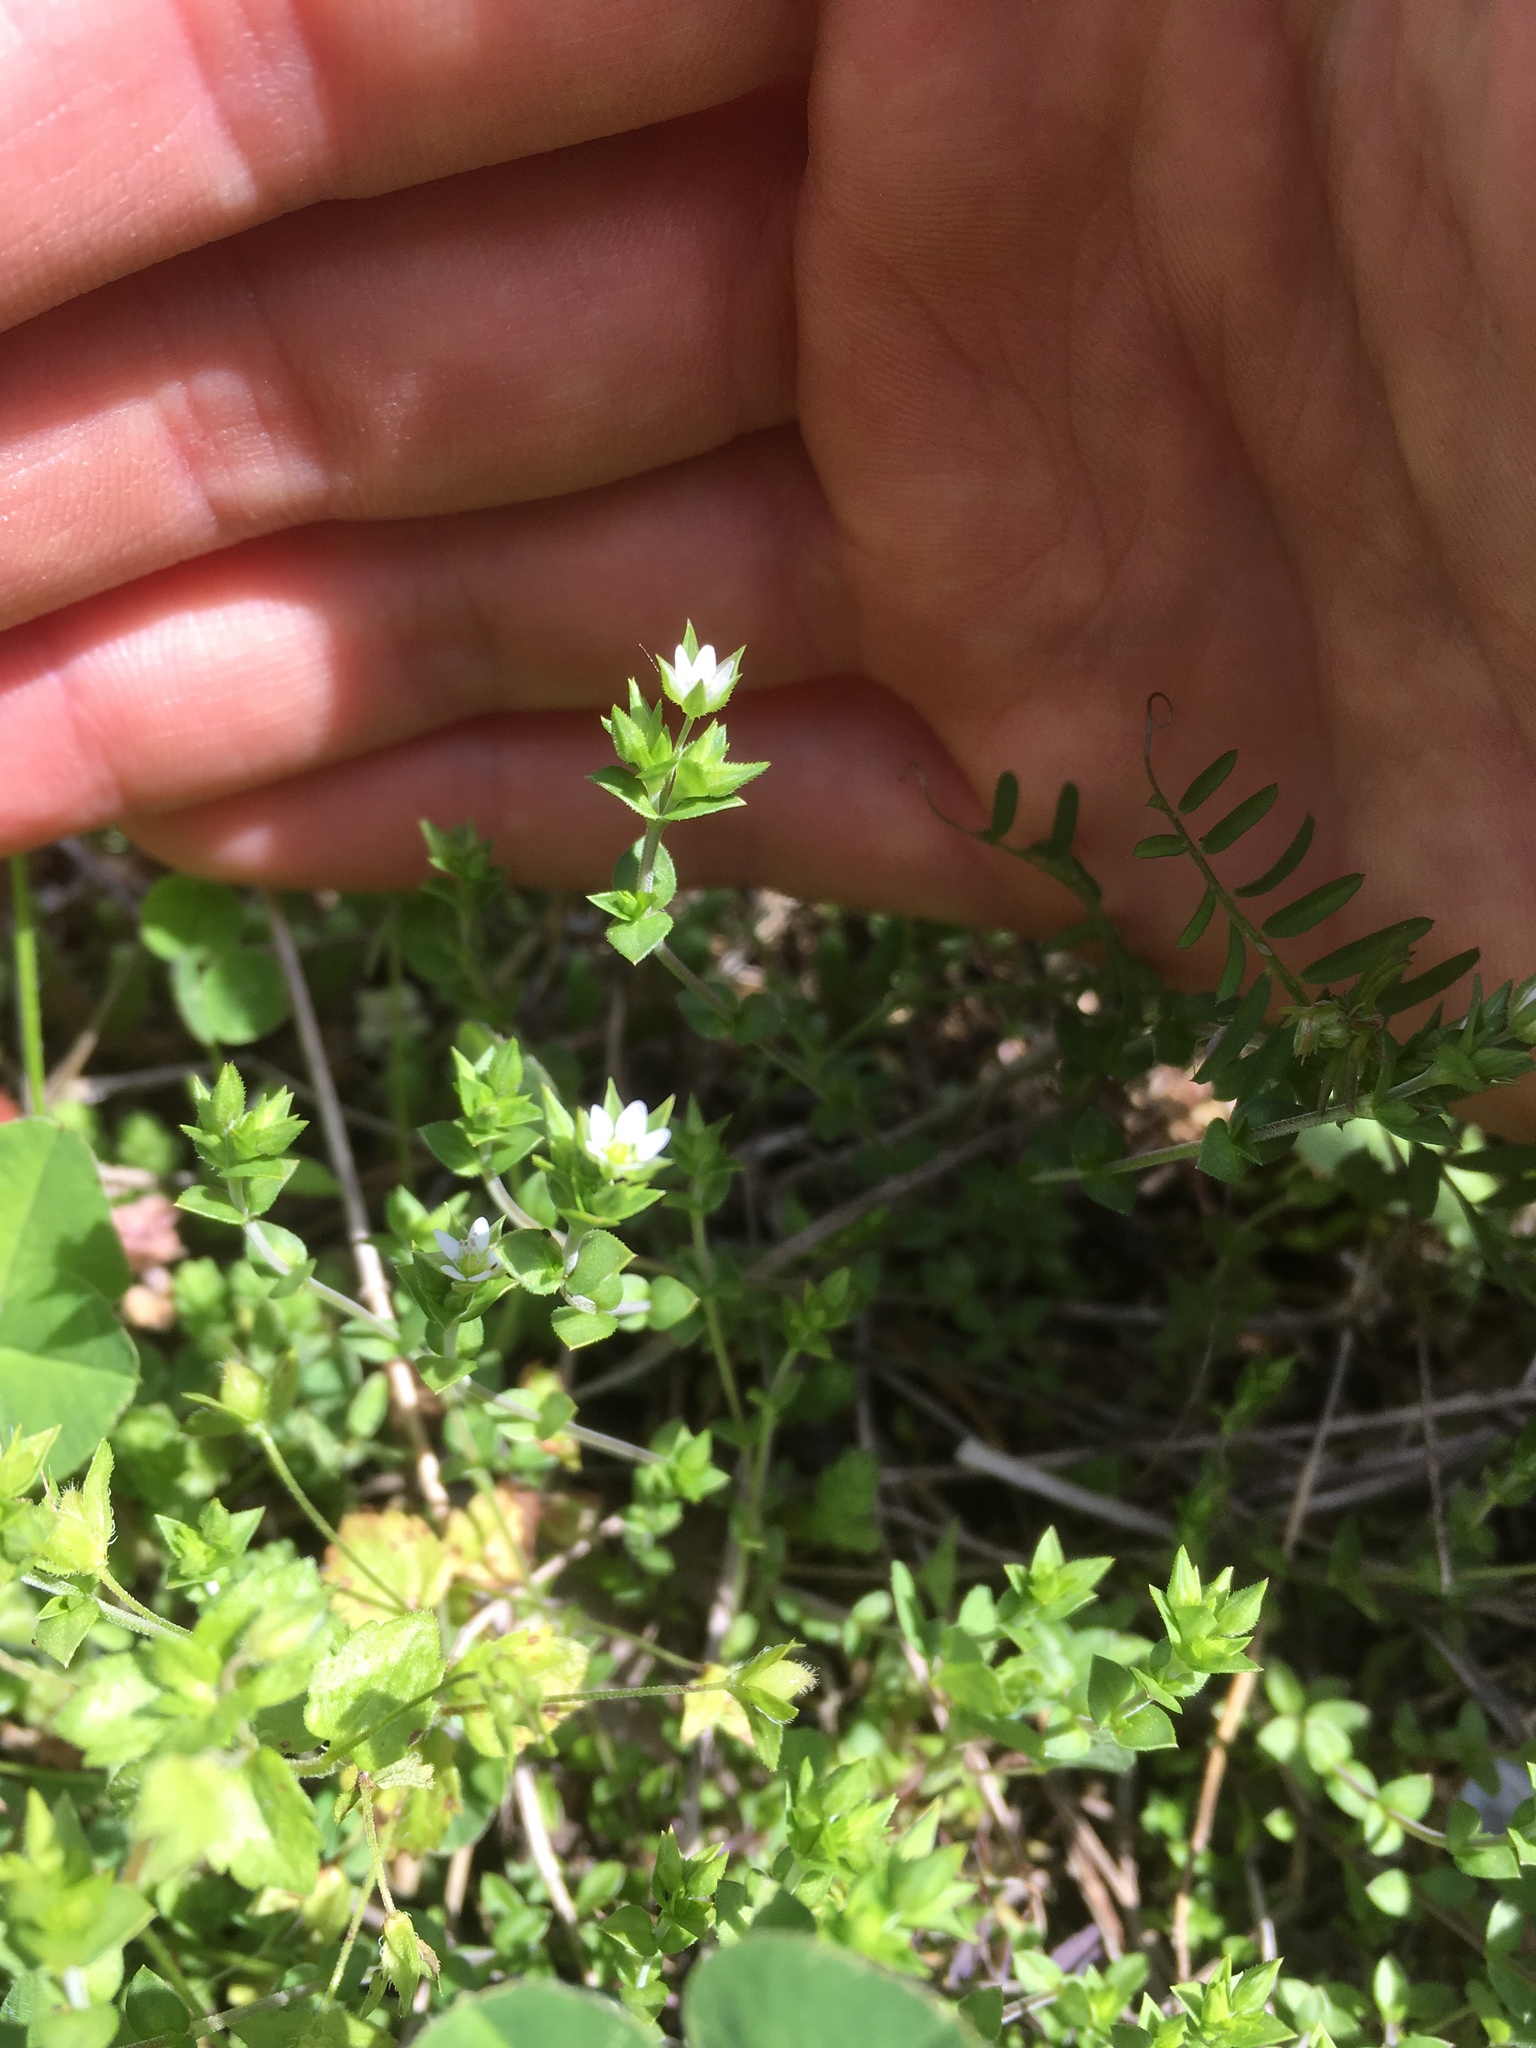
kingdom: Plantae
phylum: Tracheophyta
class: Magnoliopsida
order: Caryophyllales
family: Caryophyllaceae
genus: Arenaria
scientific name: Arenaria serpyllifolia
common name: Thyme-leaved sandwort
